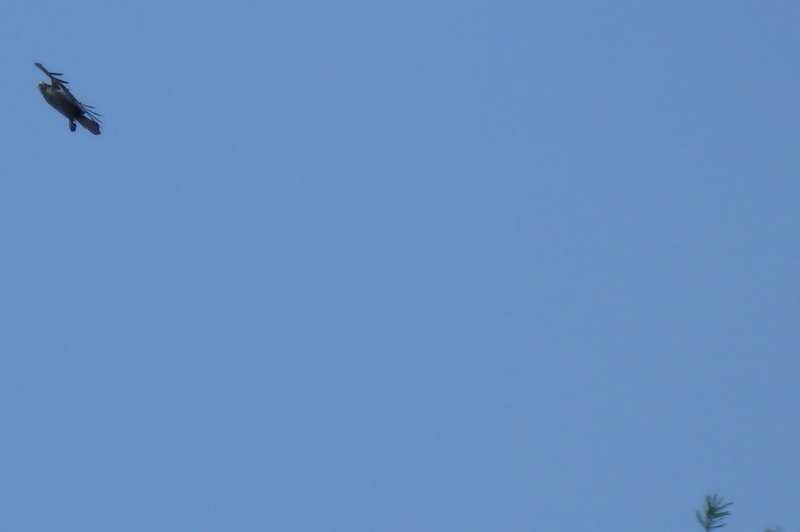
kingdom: Animalia
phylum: Chordata
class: Aves
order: Accipitriformes
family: Pandionidae
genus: Pandion
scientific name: Pandion haliaetus
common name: Osprey
